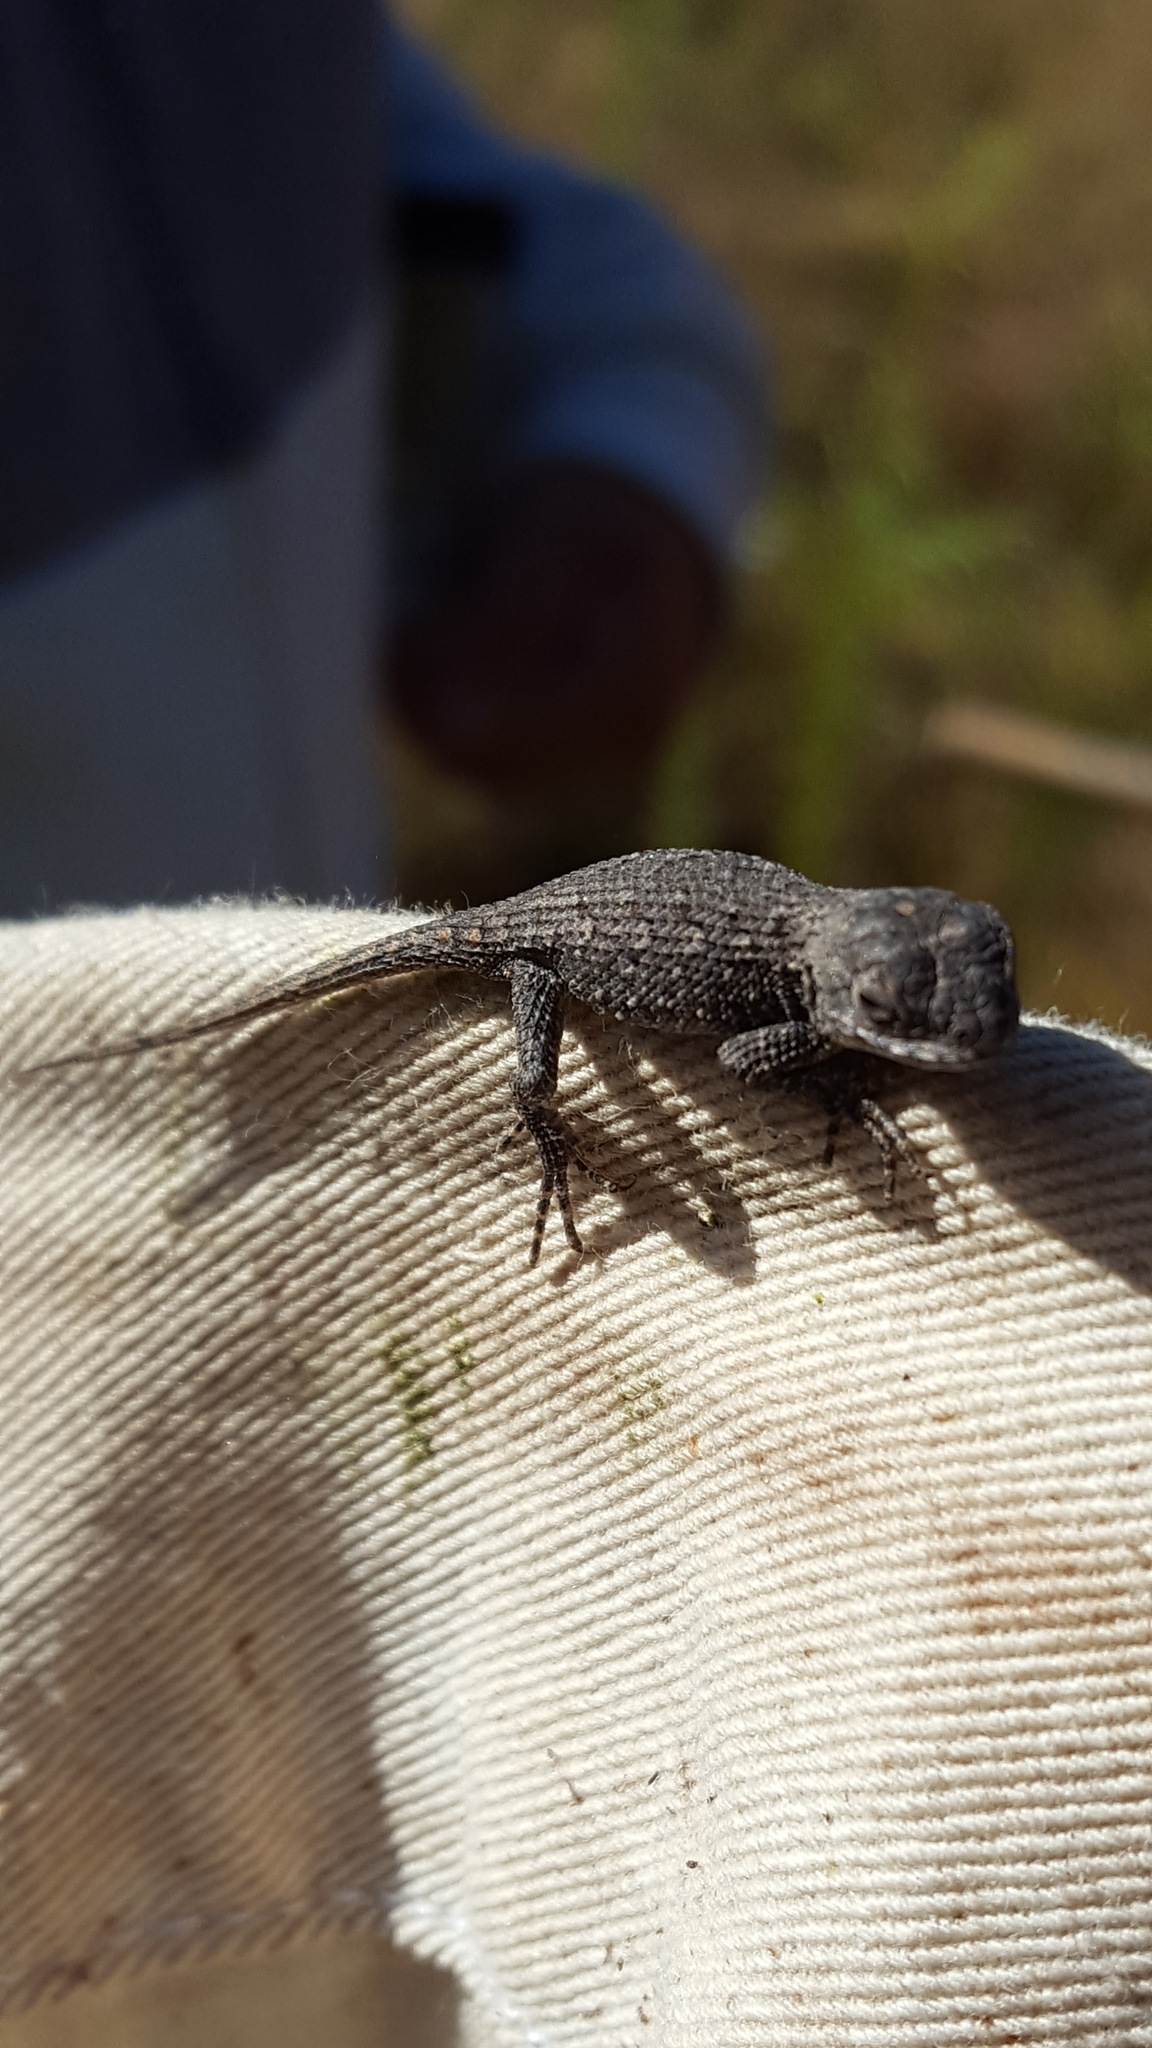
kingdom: Animalia
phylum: Chordata
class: Squamata
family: Phrynosomatidae
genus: Sceloporus
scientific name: Sceloporus undulatus
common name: Eastern fence lizard
